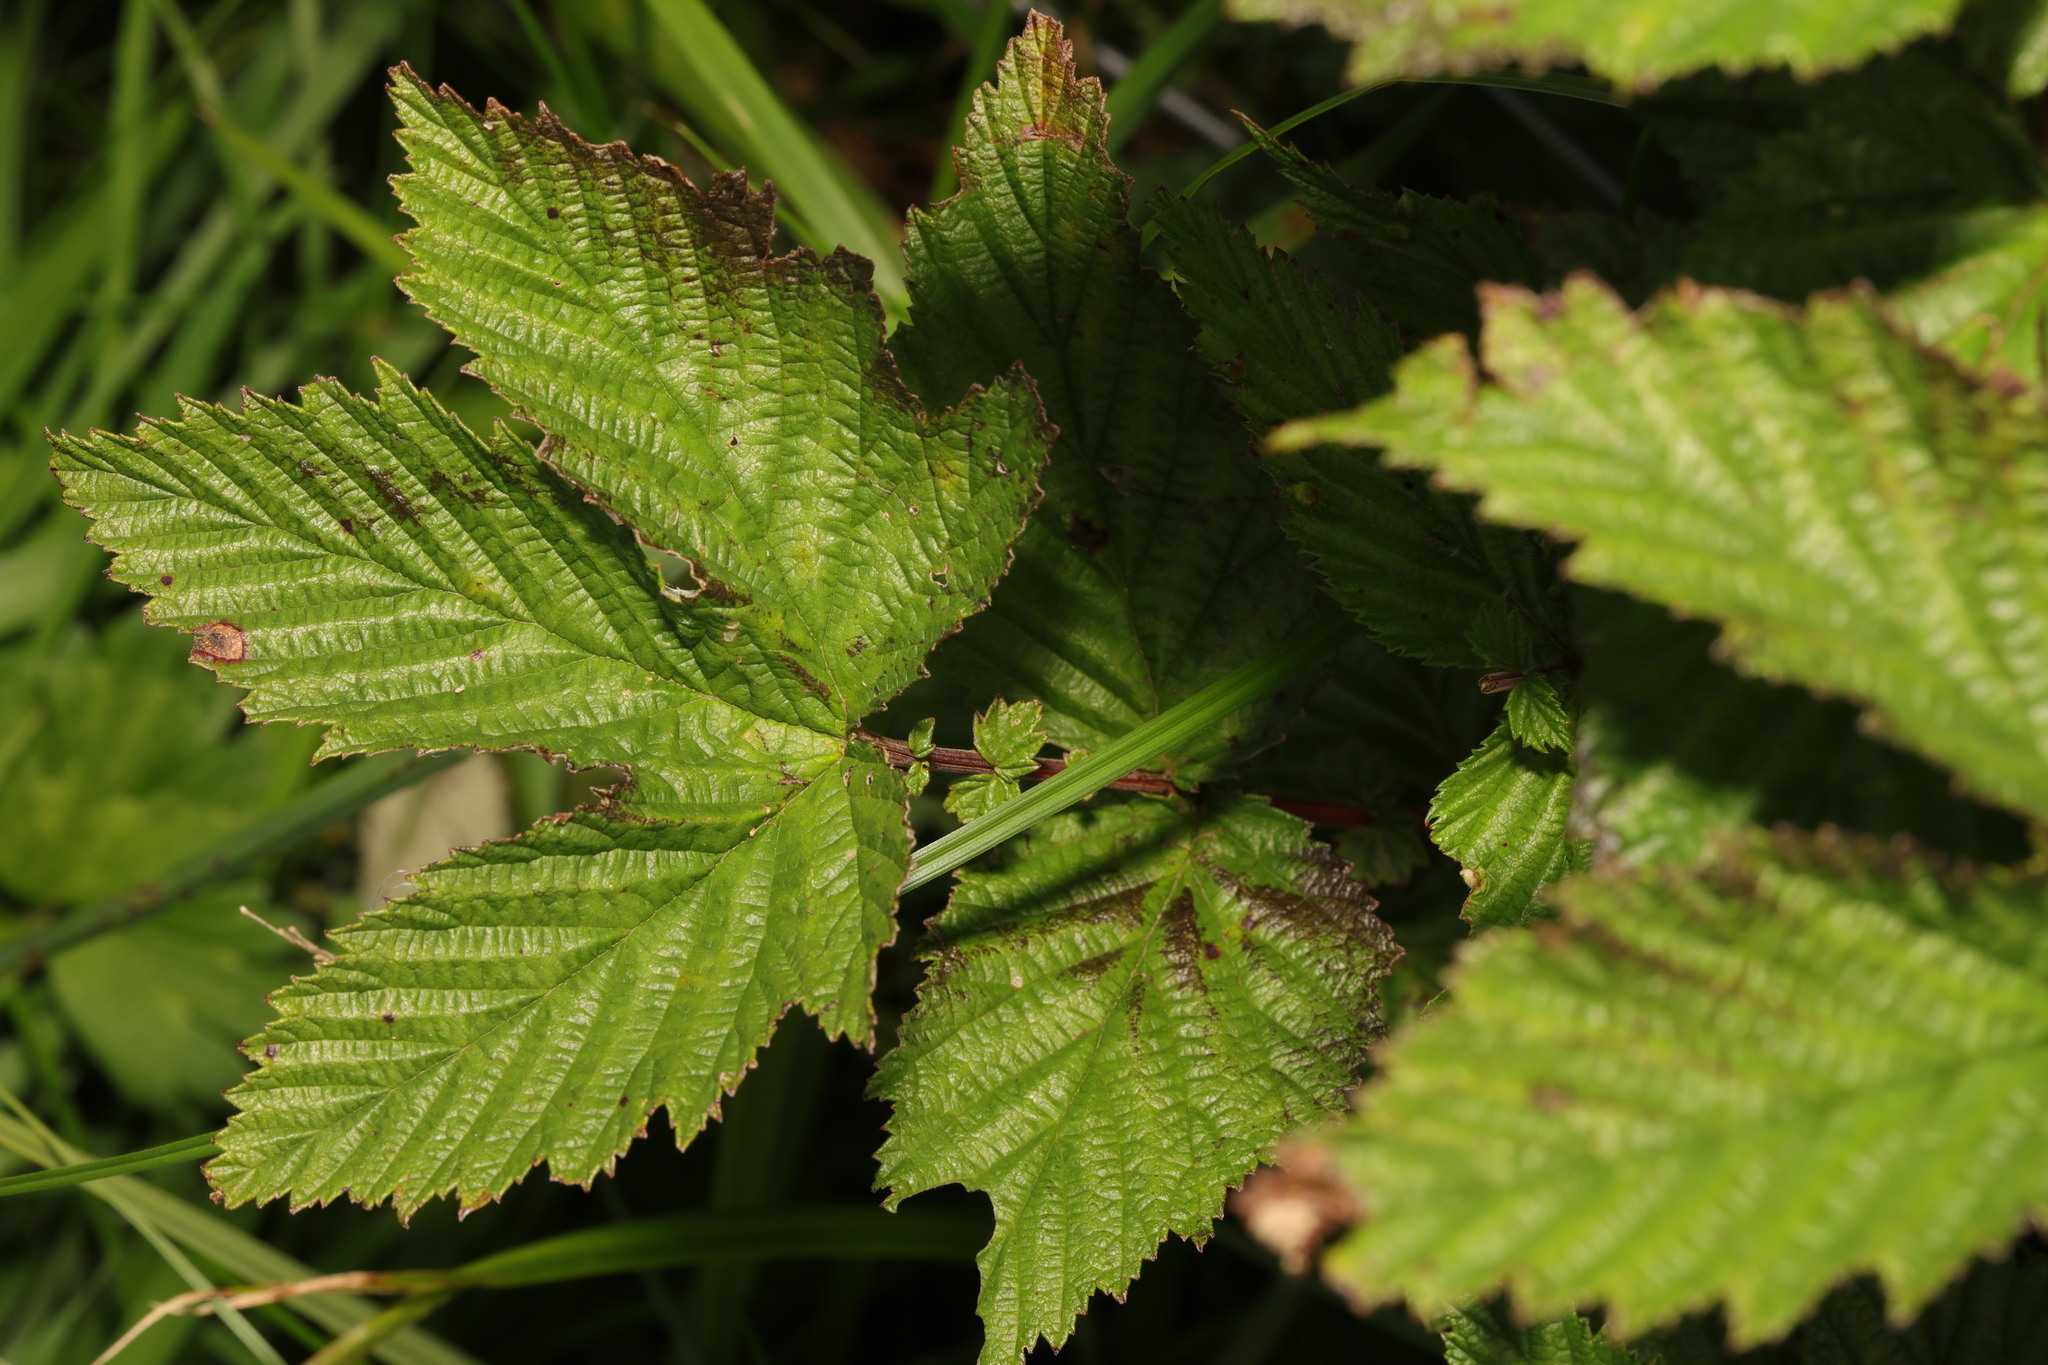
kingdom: Plantae
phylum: Tracheophyta
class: Magnoliopsida
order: Rosales
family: Rosaceae
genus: Filipendula
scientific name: Filipendula ulmaria
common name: Meadowsweet
